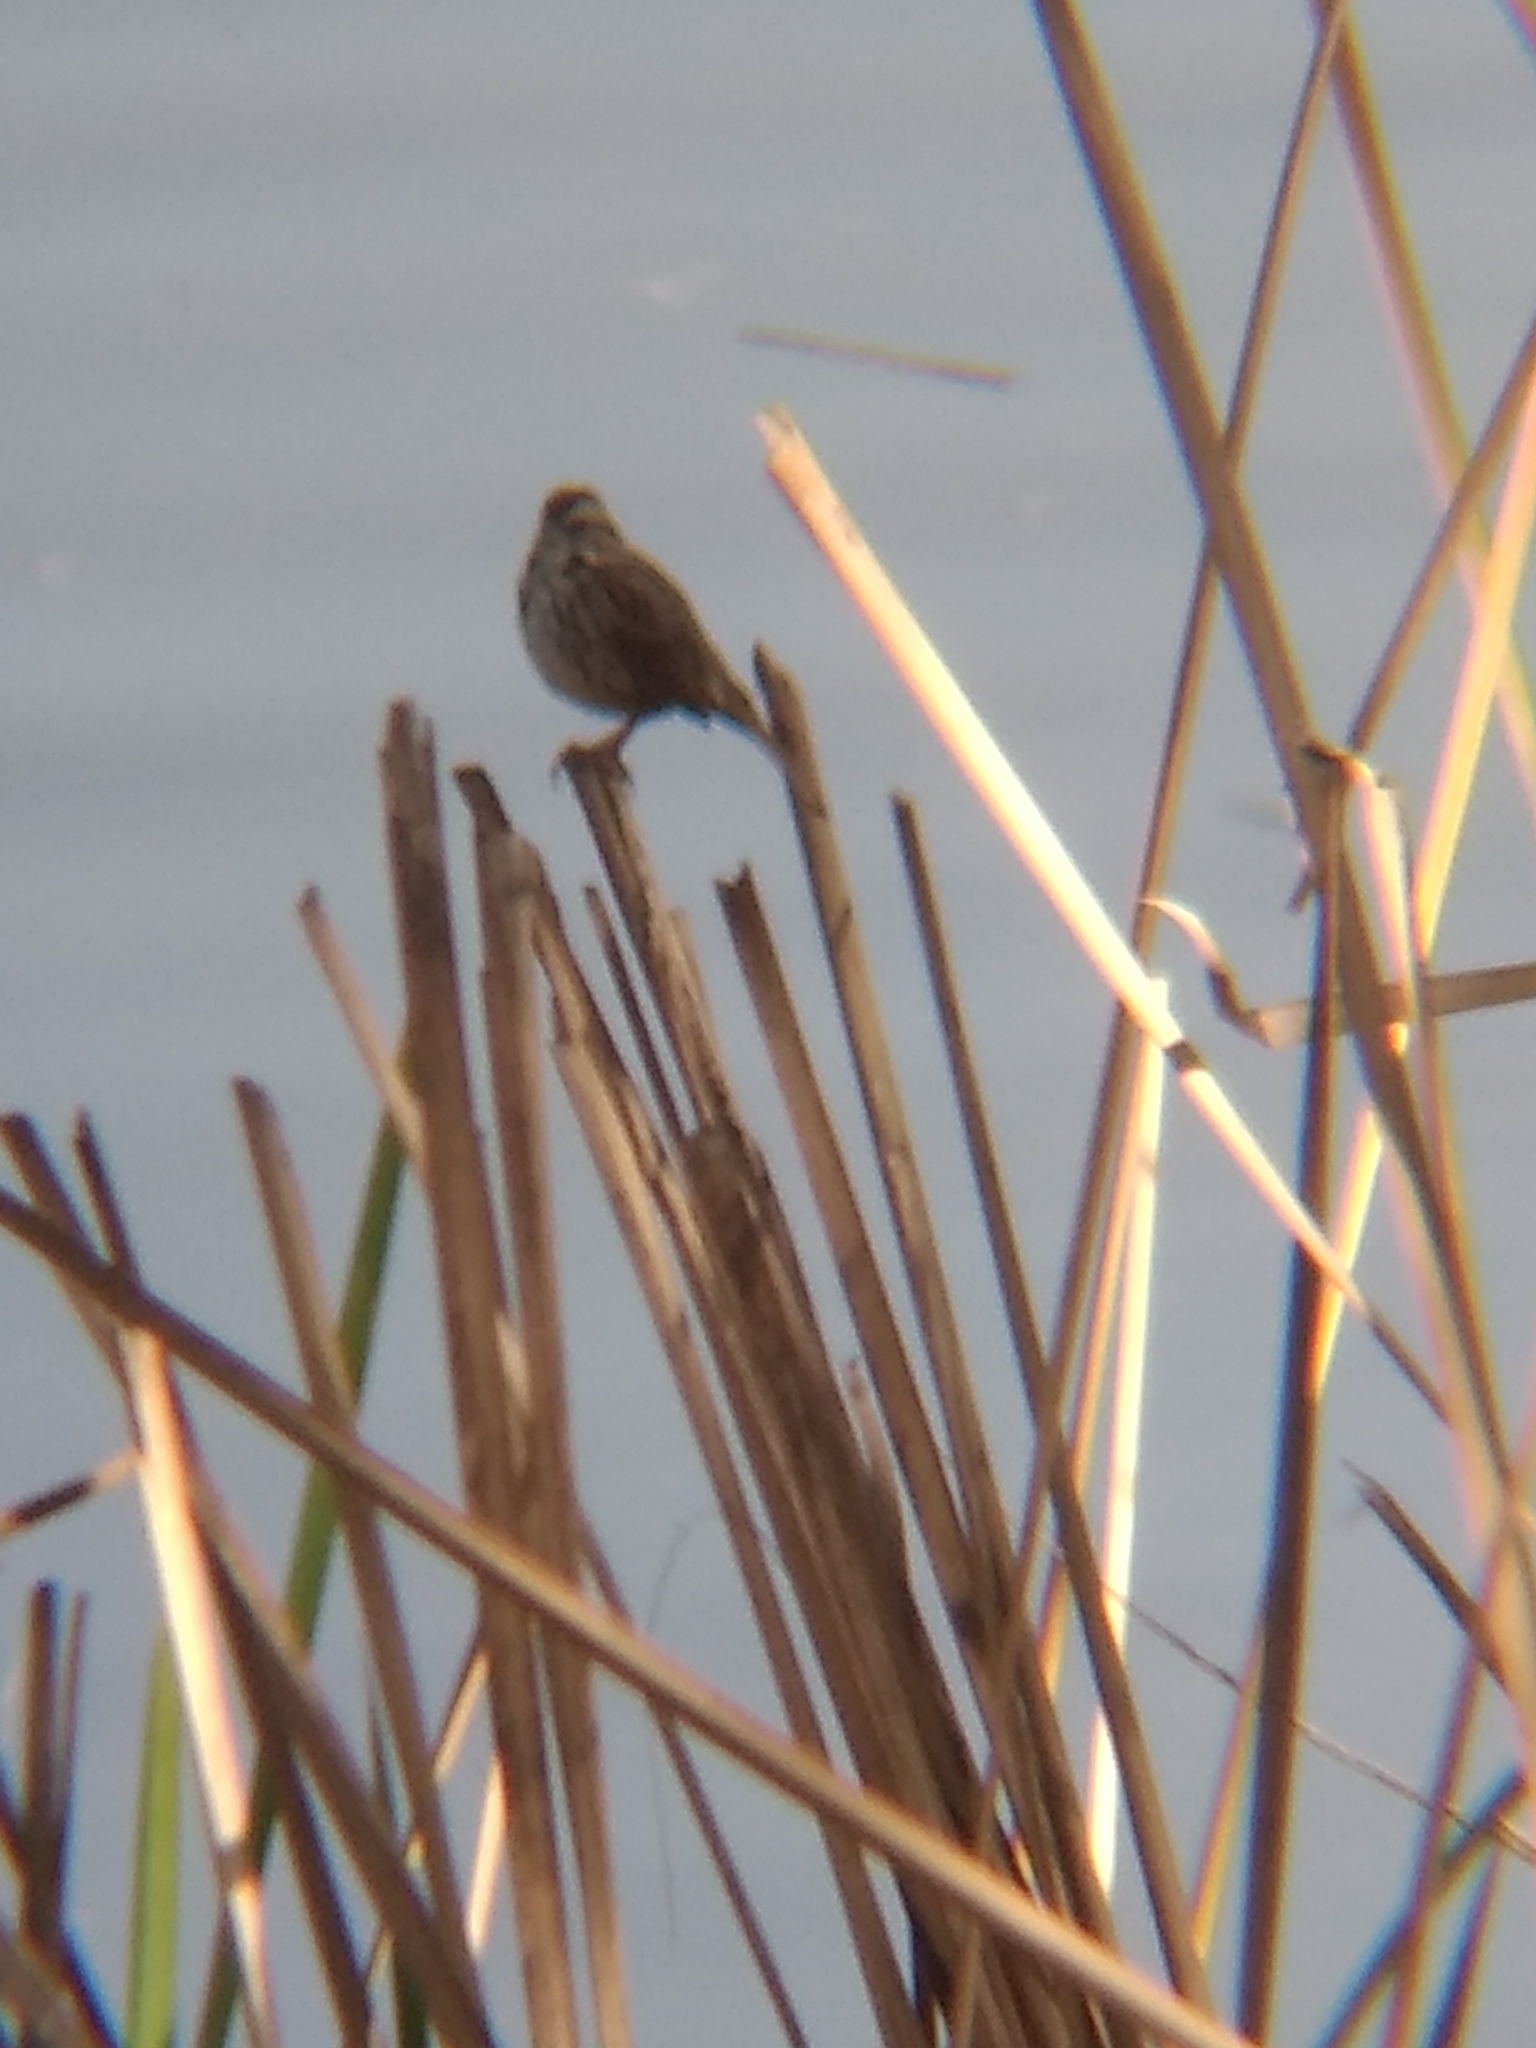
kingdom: Animalia
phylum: Chordata
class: Aves
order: Passeriformes
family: Passerellidae
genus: Melospiza
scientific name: Melospiza melodia
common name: Song sparrow
